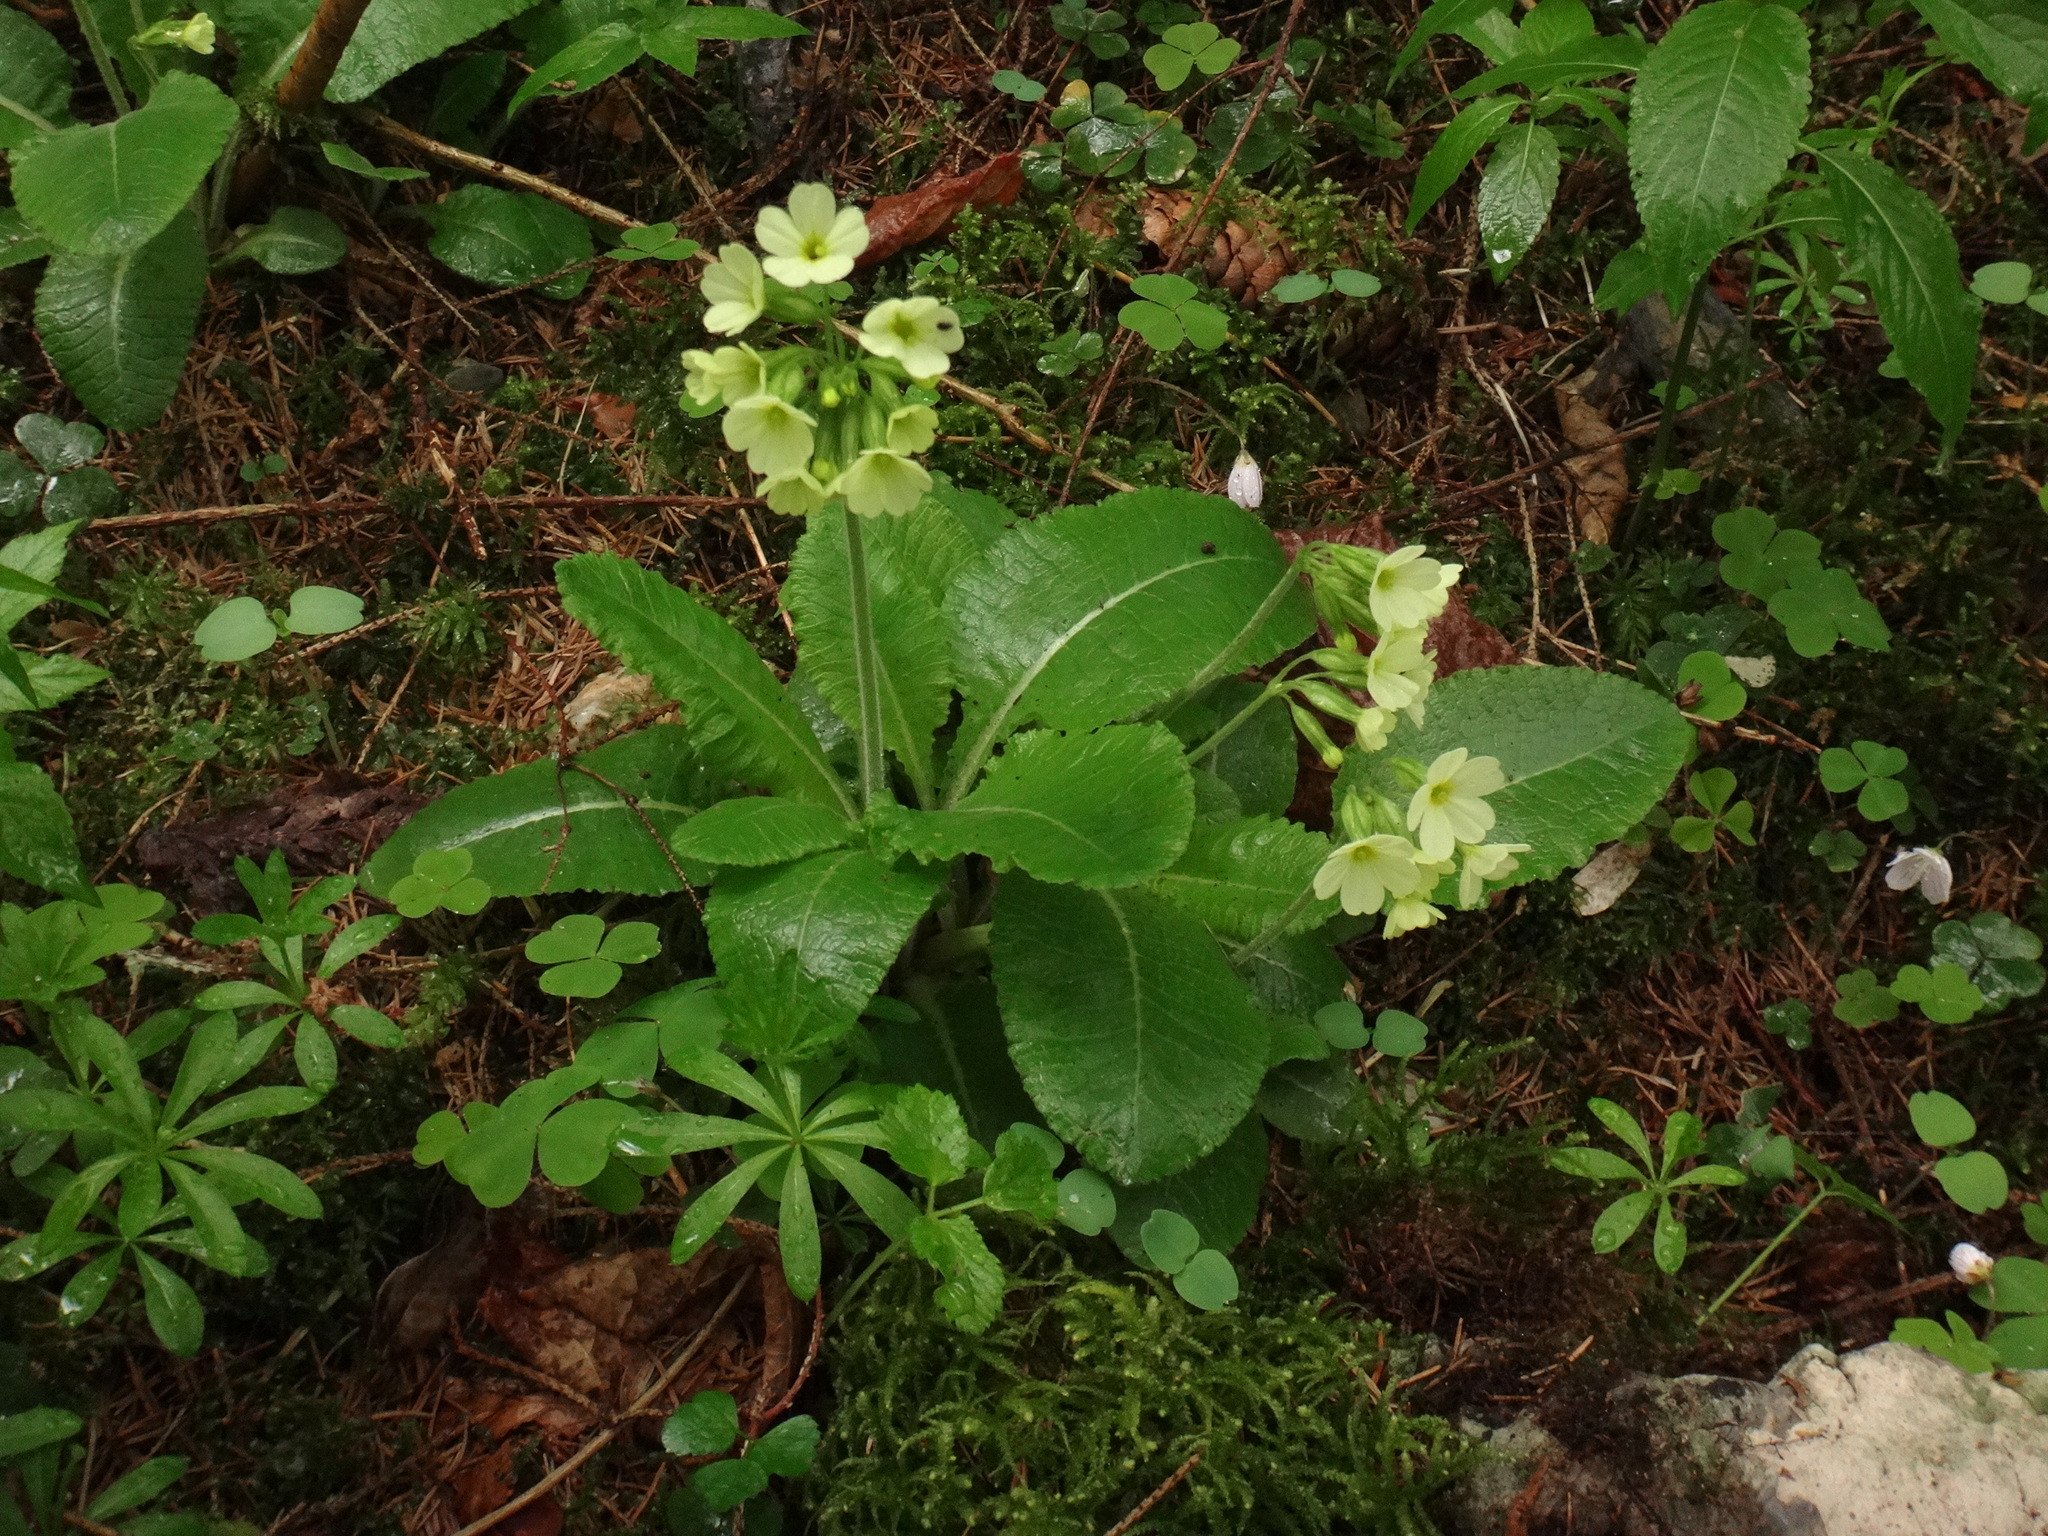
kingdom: Plantae
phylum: Tracheophyta
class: Magnoliopsida
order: Ericales
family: Primulaceae
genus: Primula
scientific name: Primula elatior
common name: Oxlip
